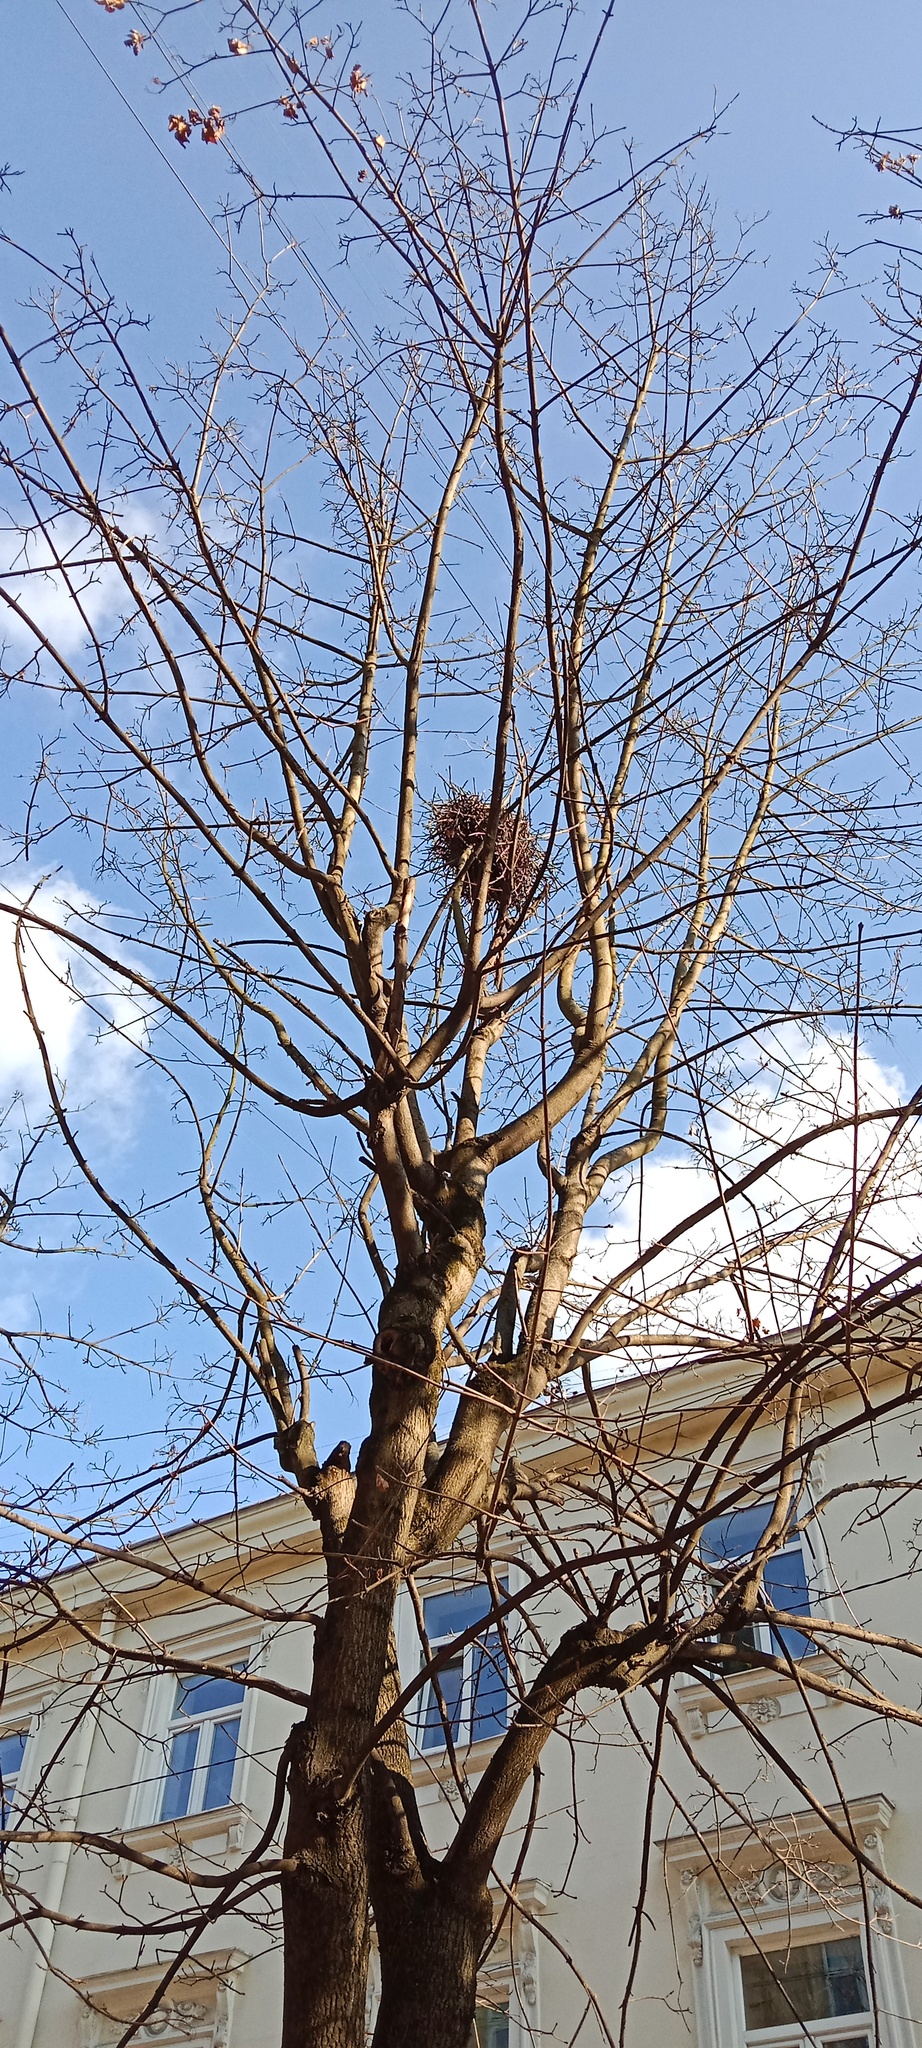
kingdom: Plantae
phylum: Tracheophyta
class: Magnoliopsida
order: Santalales
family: Viscaceae
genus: Viscum
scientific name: Viscum album
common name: Mistletoe
